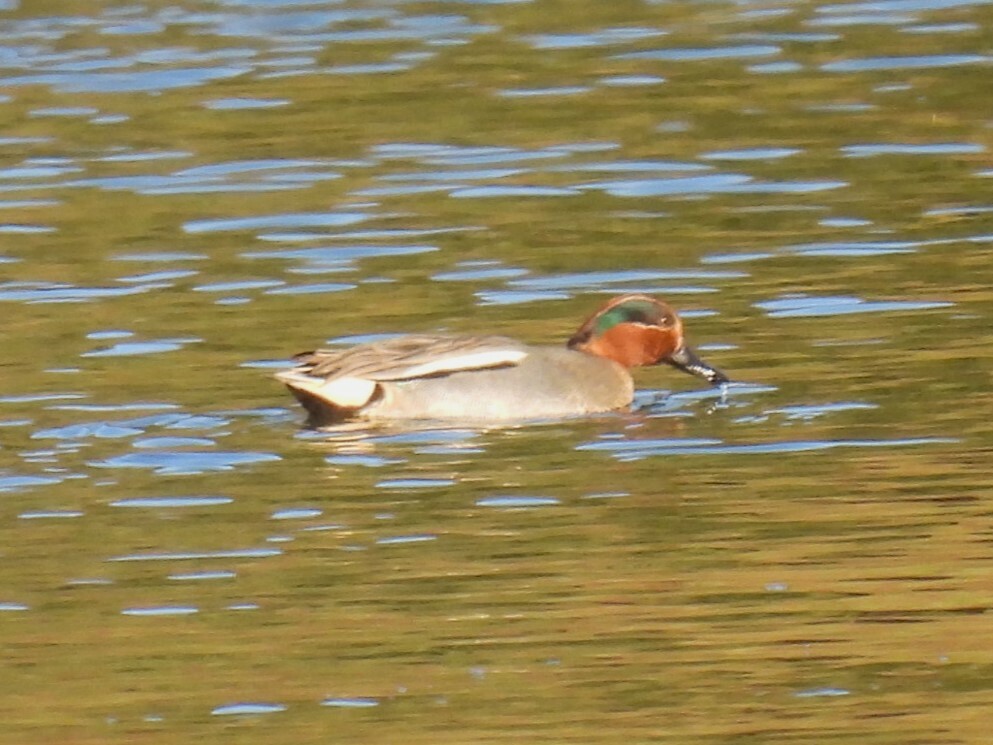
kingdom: Animalia
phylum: Chordata
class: Aves
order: Anseriformes
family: Anatidae
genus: Anas
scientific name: Anas crecca
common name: Eurasian teal
